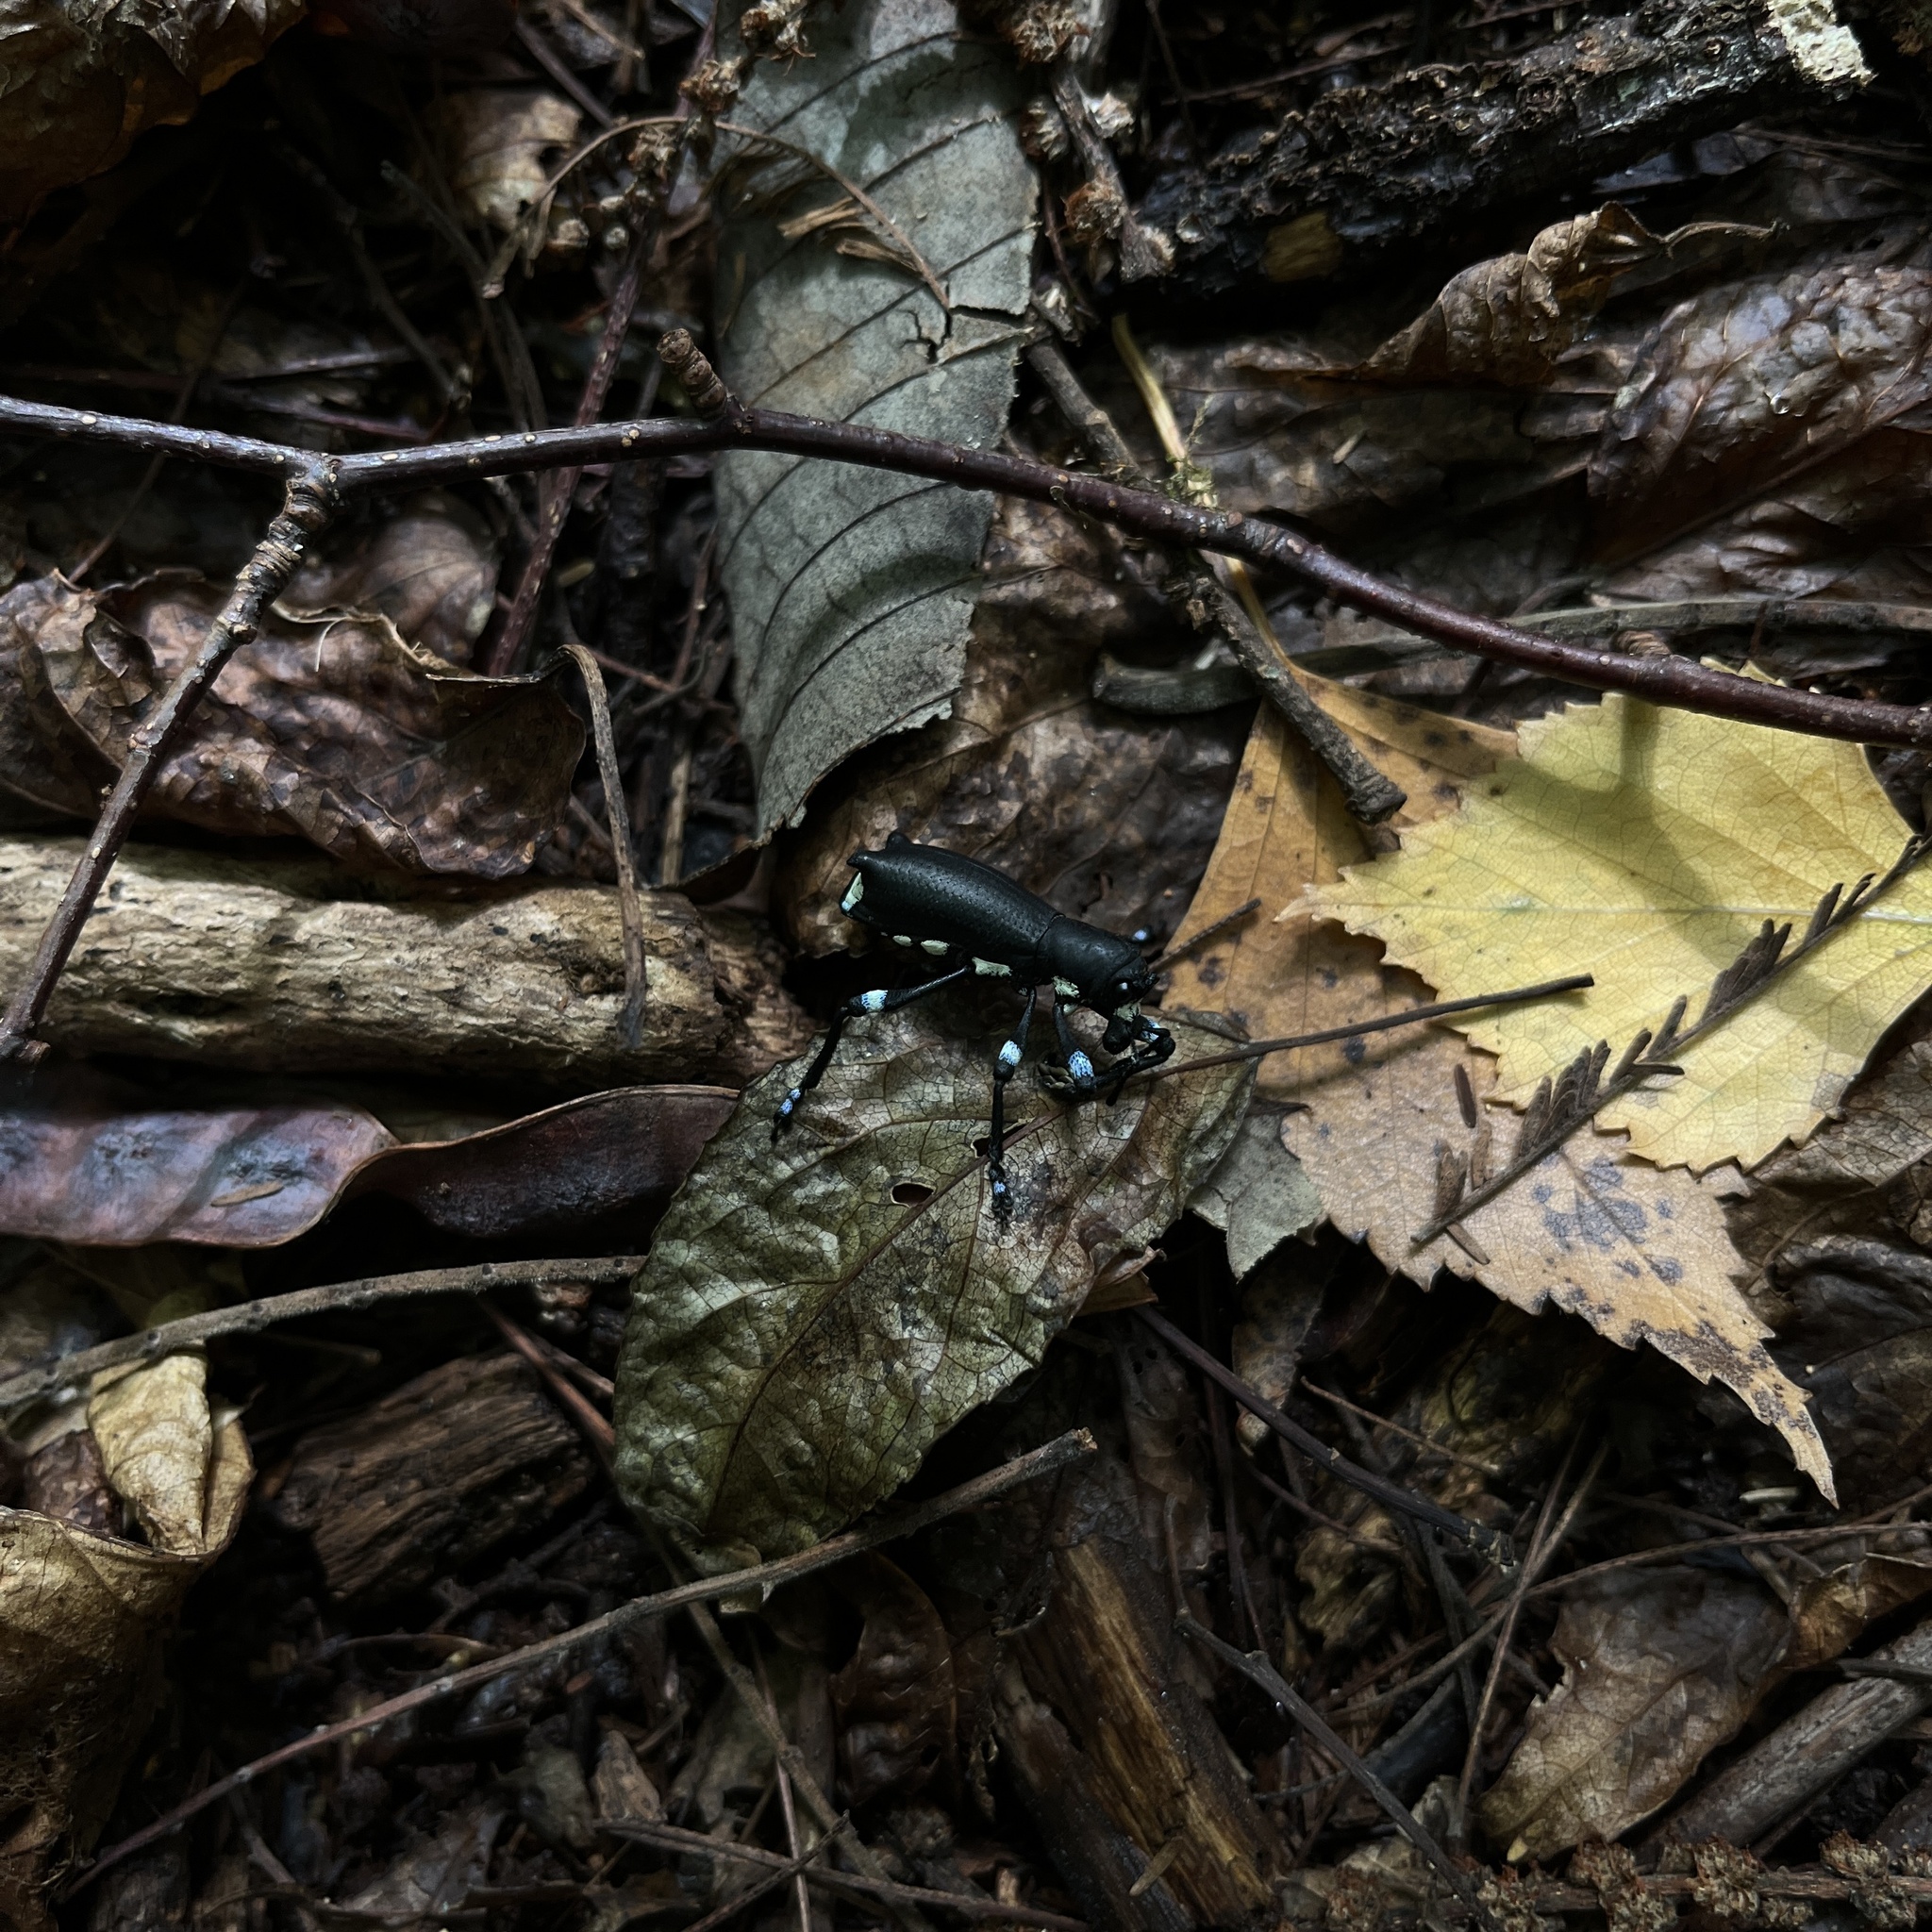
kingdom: Animalia
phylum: Arthropoda
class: Insecta
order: Coleoptera
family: Curculionidae
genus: Aegorhinus
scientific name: Aegorhinus
